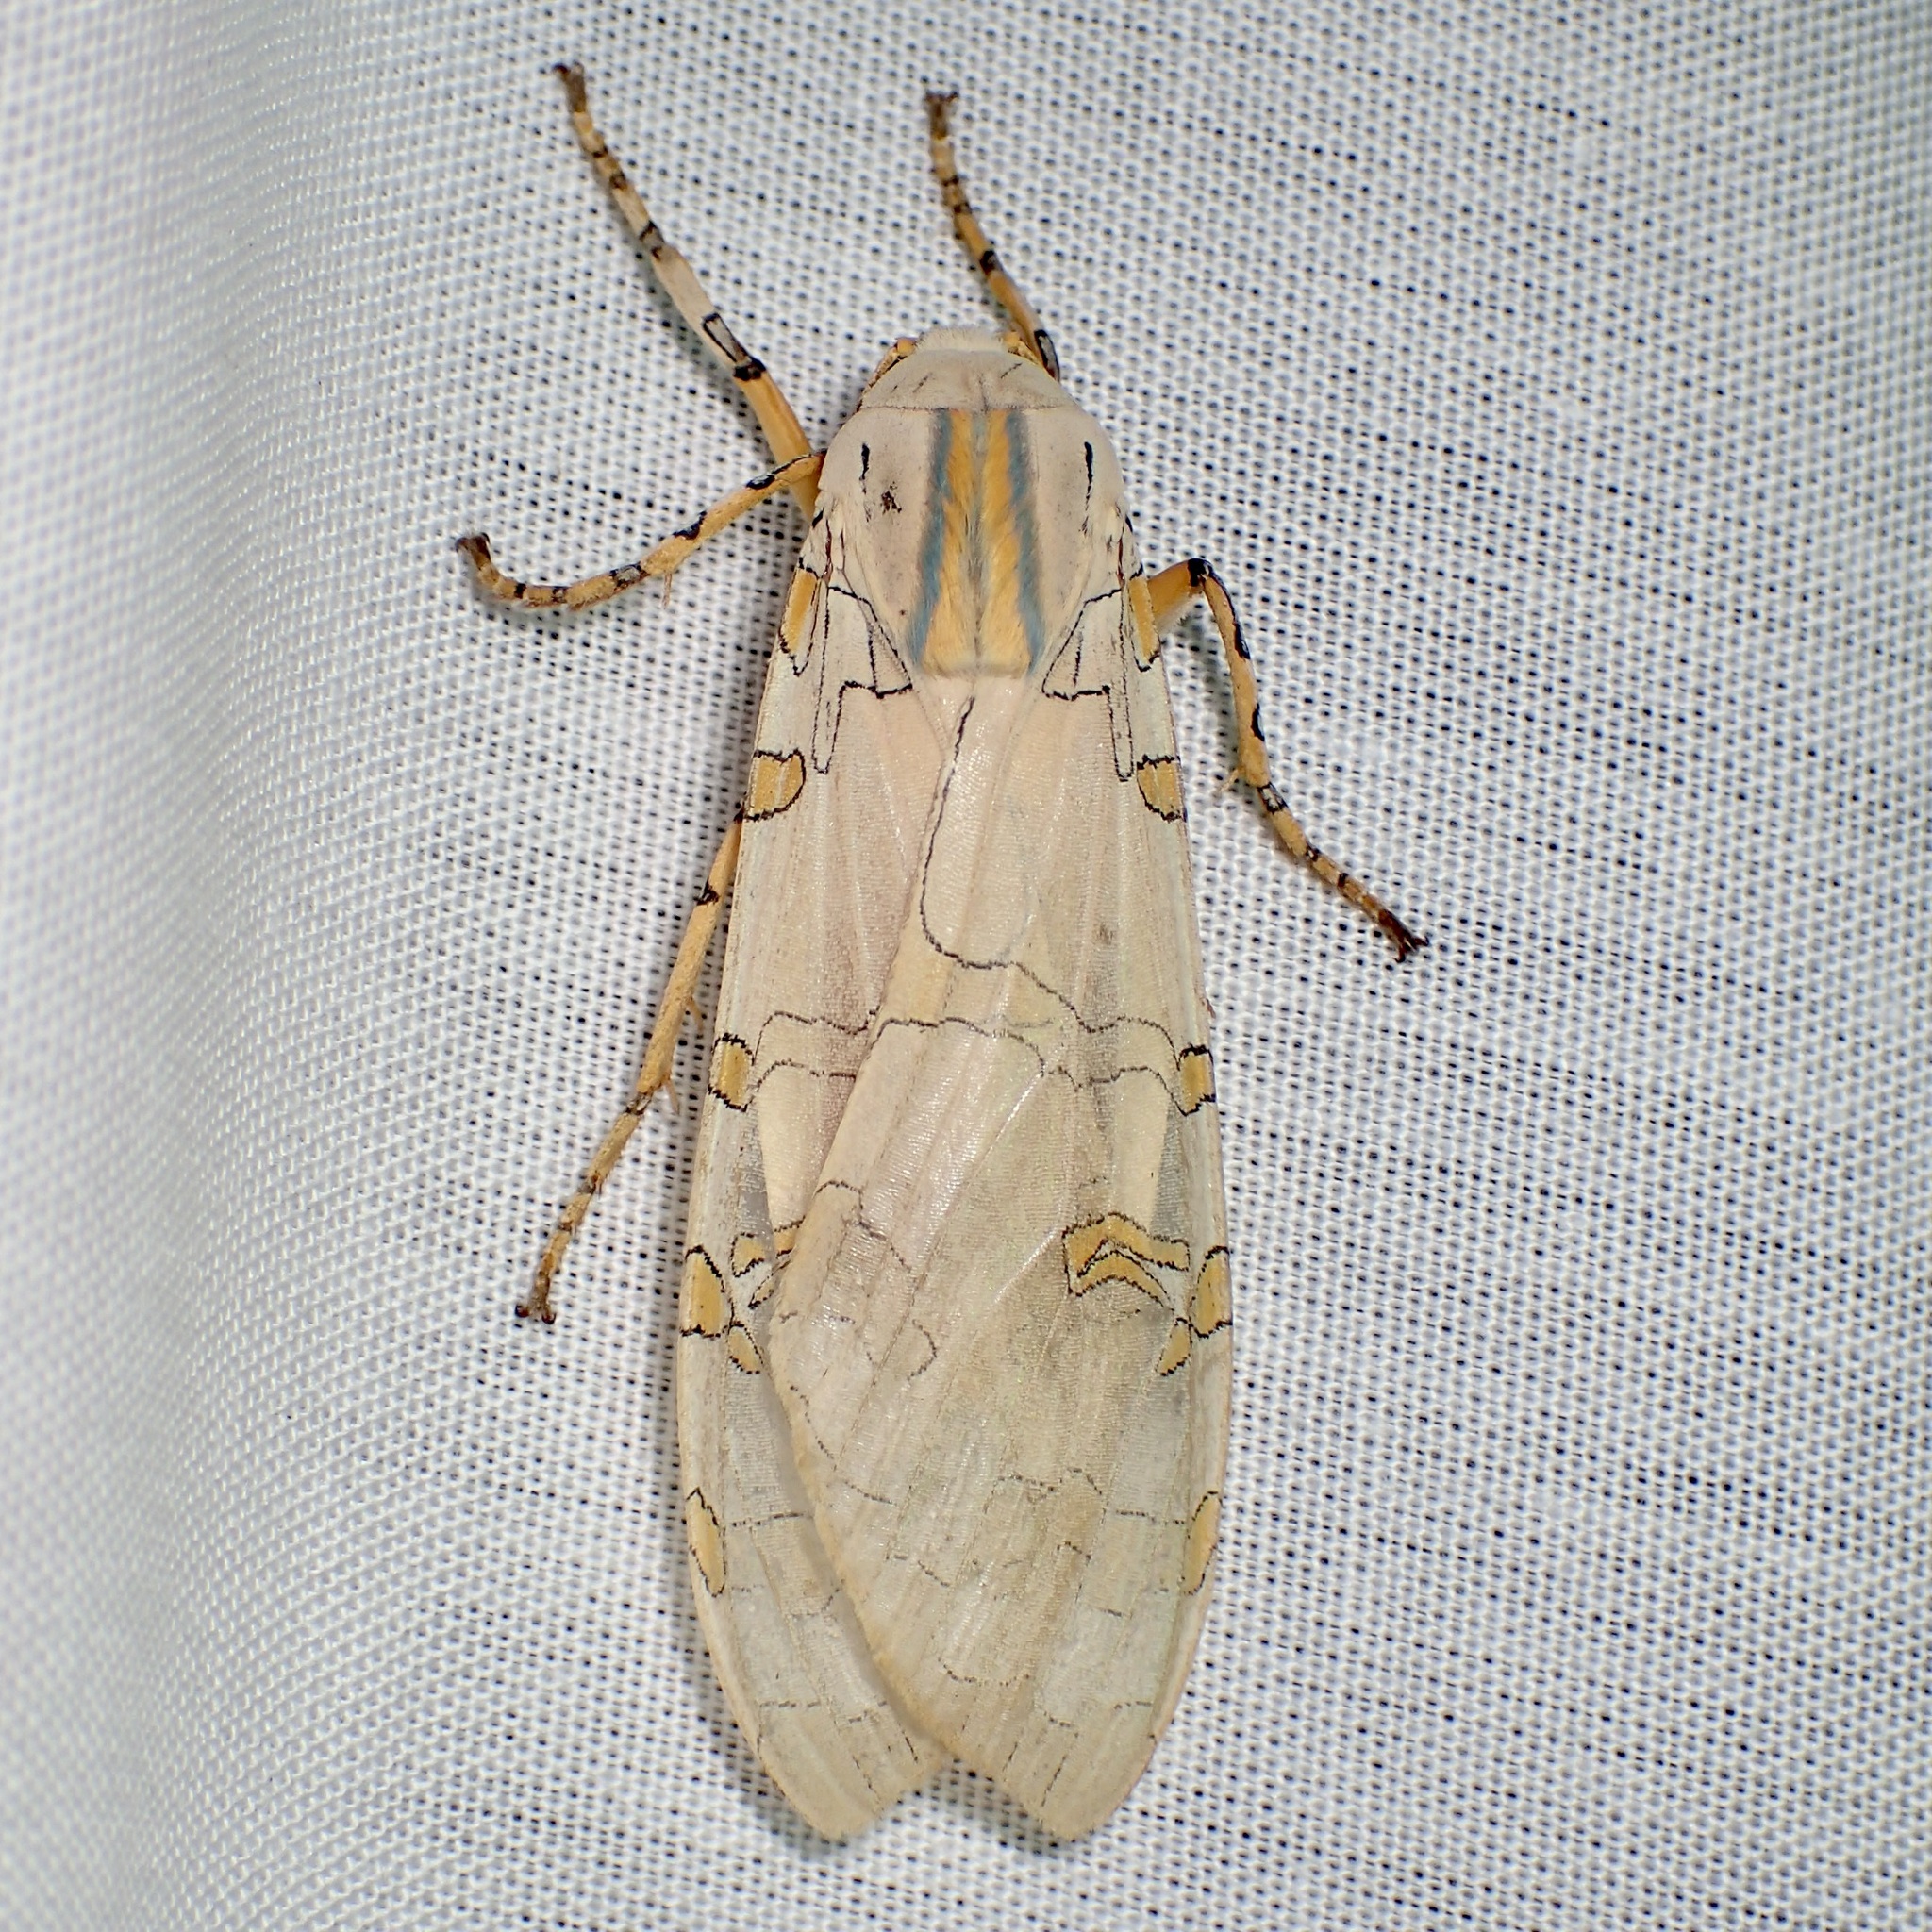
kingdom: Animalia
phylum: Arthropoda
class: Insecta
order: Lepidoptera
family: Erebidae
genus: Halysidota
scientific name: Halysidota davisii
